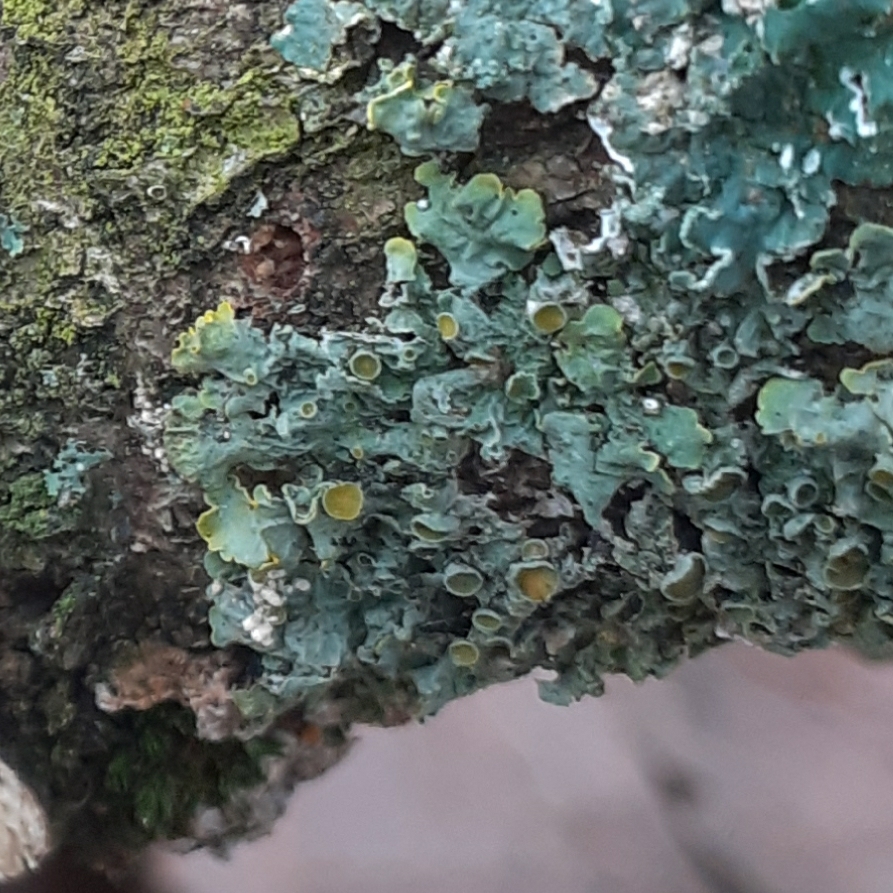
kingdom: Fungi
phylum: Ascomycota
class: Lecanoromycetes
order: Teloschistales
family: Teloschistaceae
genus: Xanthoria
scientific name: Xanthoria parietina
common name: Common orange lichen
